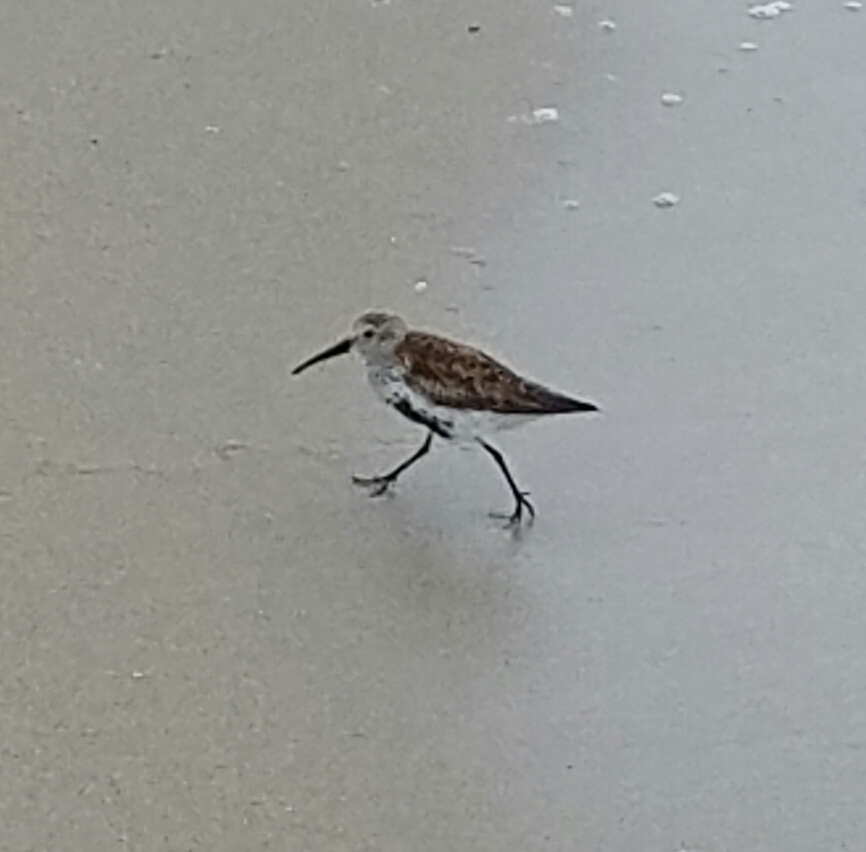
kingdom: Animalia
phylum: Chordata
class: Aves
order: Charadriiformes
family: Scolopacidae
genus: Calidris
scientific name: Calidris alpina
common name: Dunlin
